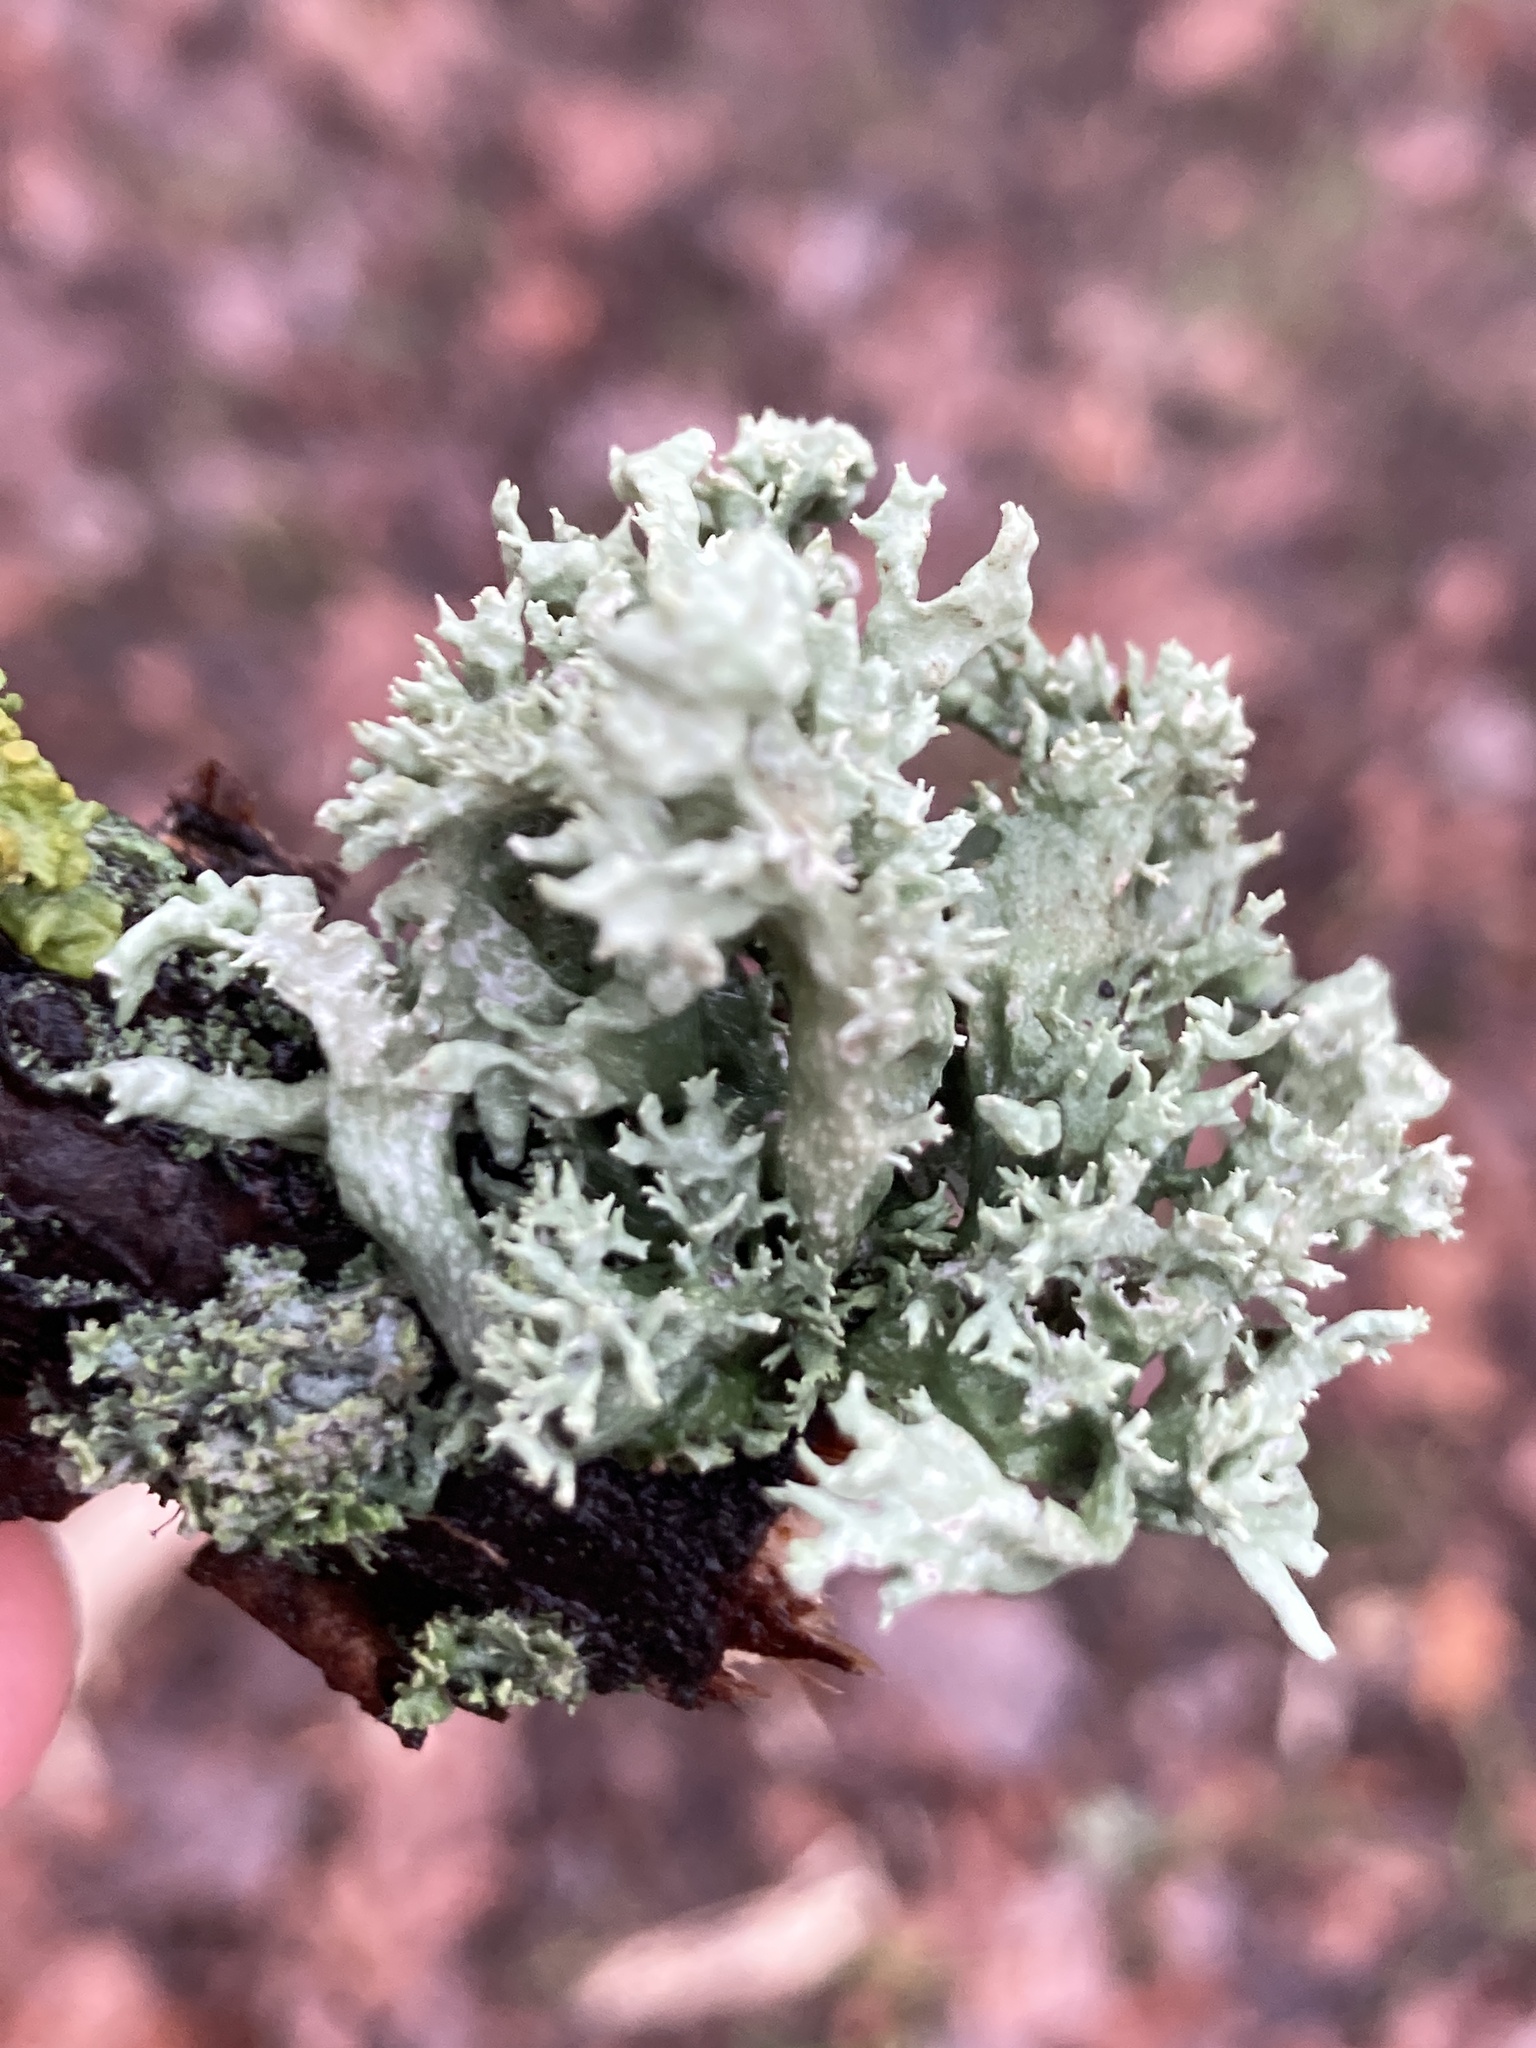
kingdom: Fungi
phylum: Ascomycota
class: Lecanoromycetes
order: Lecanorales
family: Ramalinaceae
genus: Ramalina
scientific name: Ramalina fastigiata
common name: Dotted ribbon lichen
